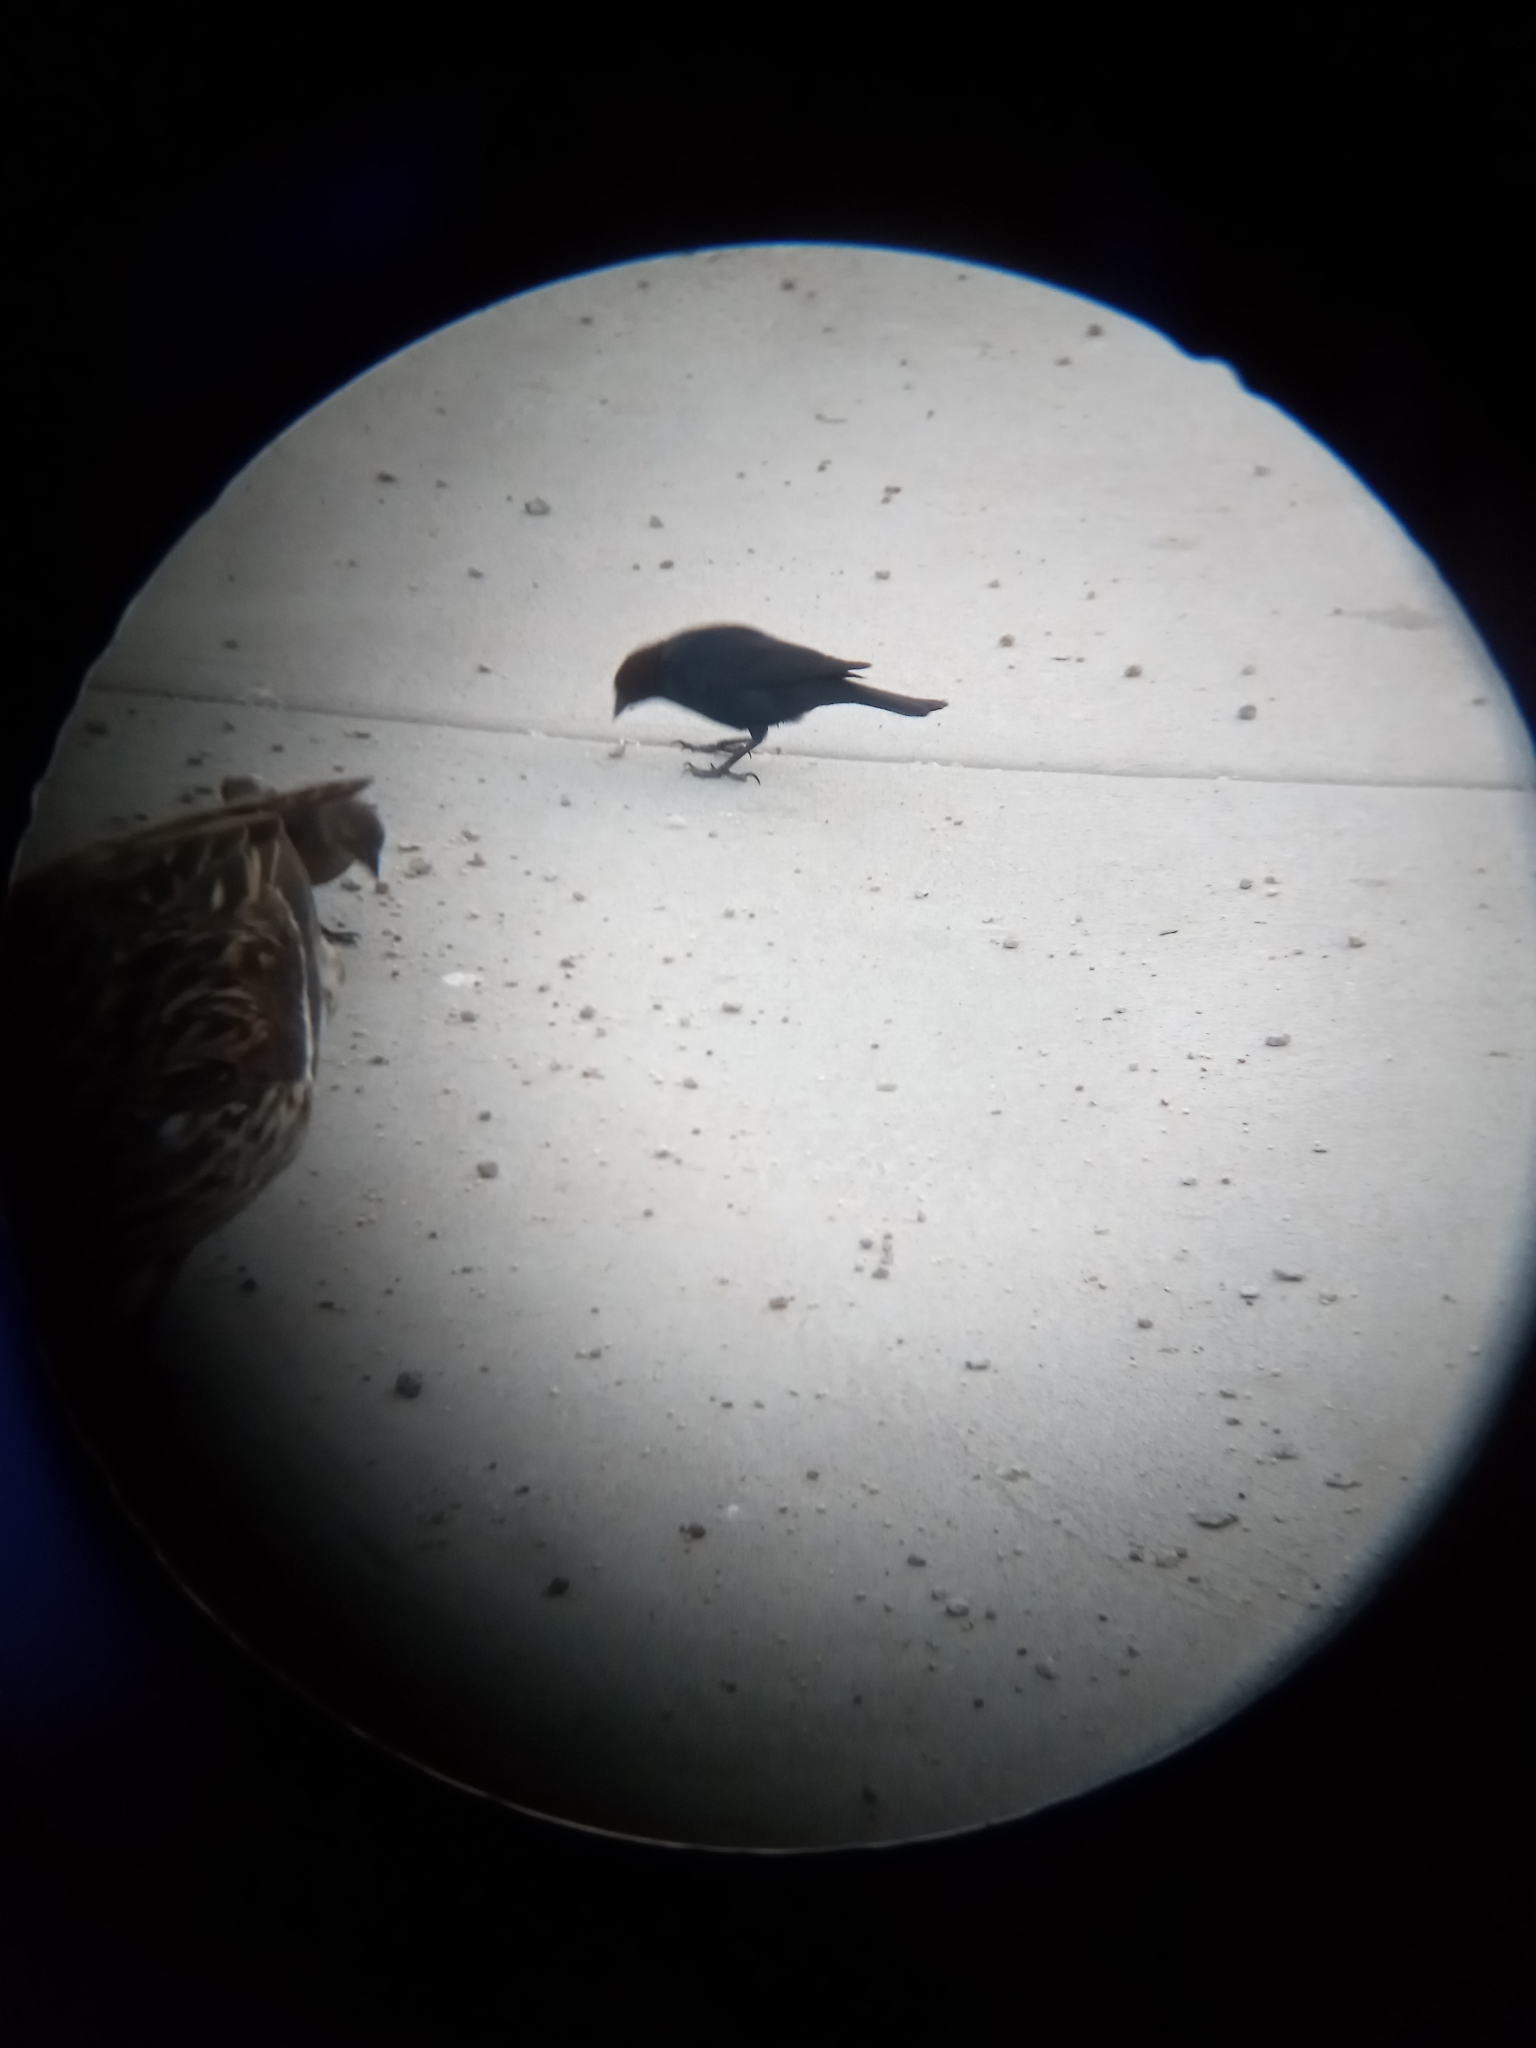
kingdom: Animalia
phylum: Chordata
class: Aves
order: Passeriformes
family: Icteridae
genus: Molothrus
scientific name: Molothrus ater
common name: Brown-headed cowbird
